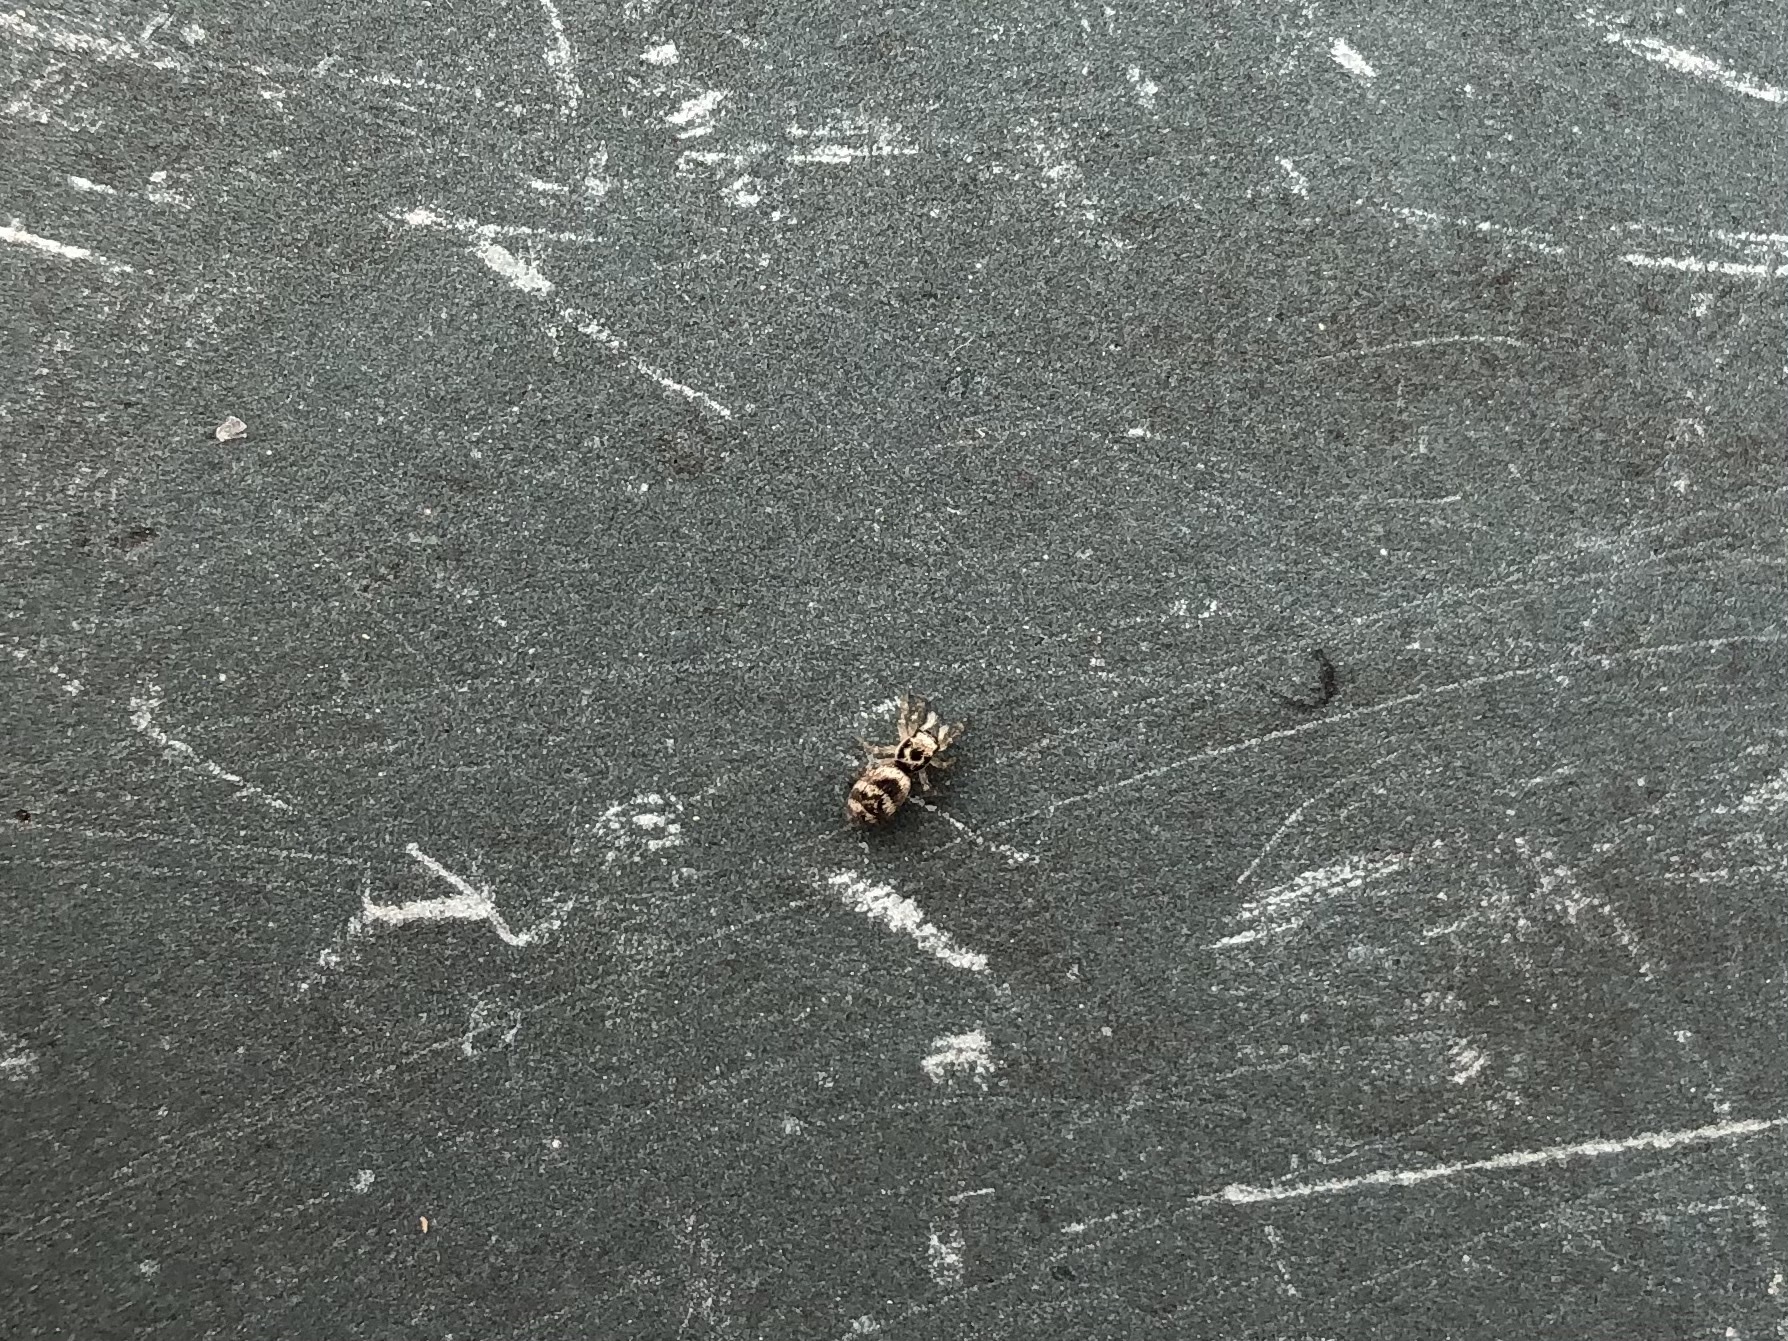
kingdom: Animalia
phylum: Arthropoda
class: Arachnida
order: Araneae
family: Salticidae
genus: Salticus
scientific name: Salticus scenicus
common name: Zebra jumper
